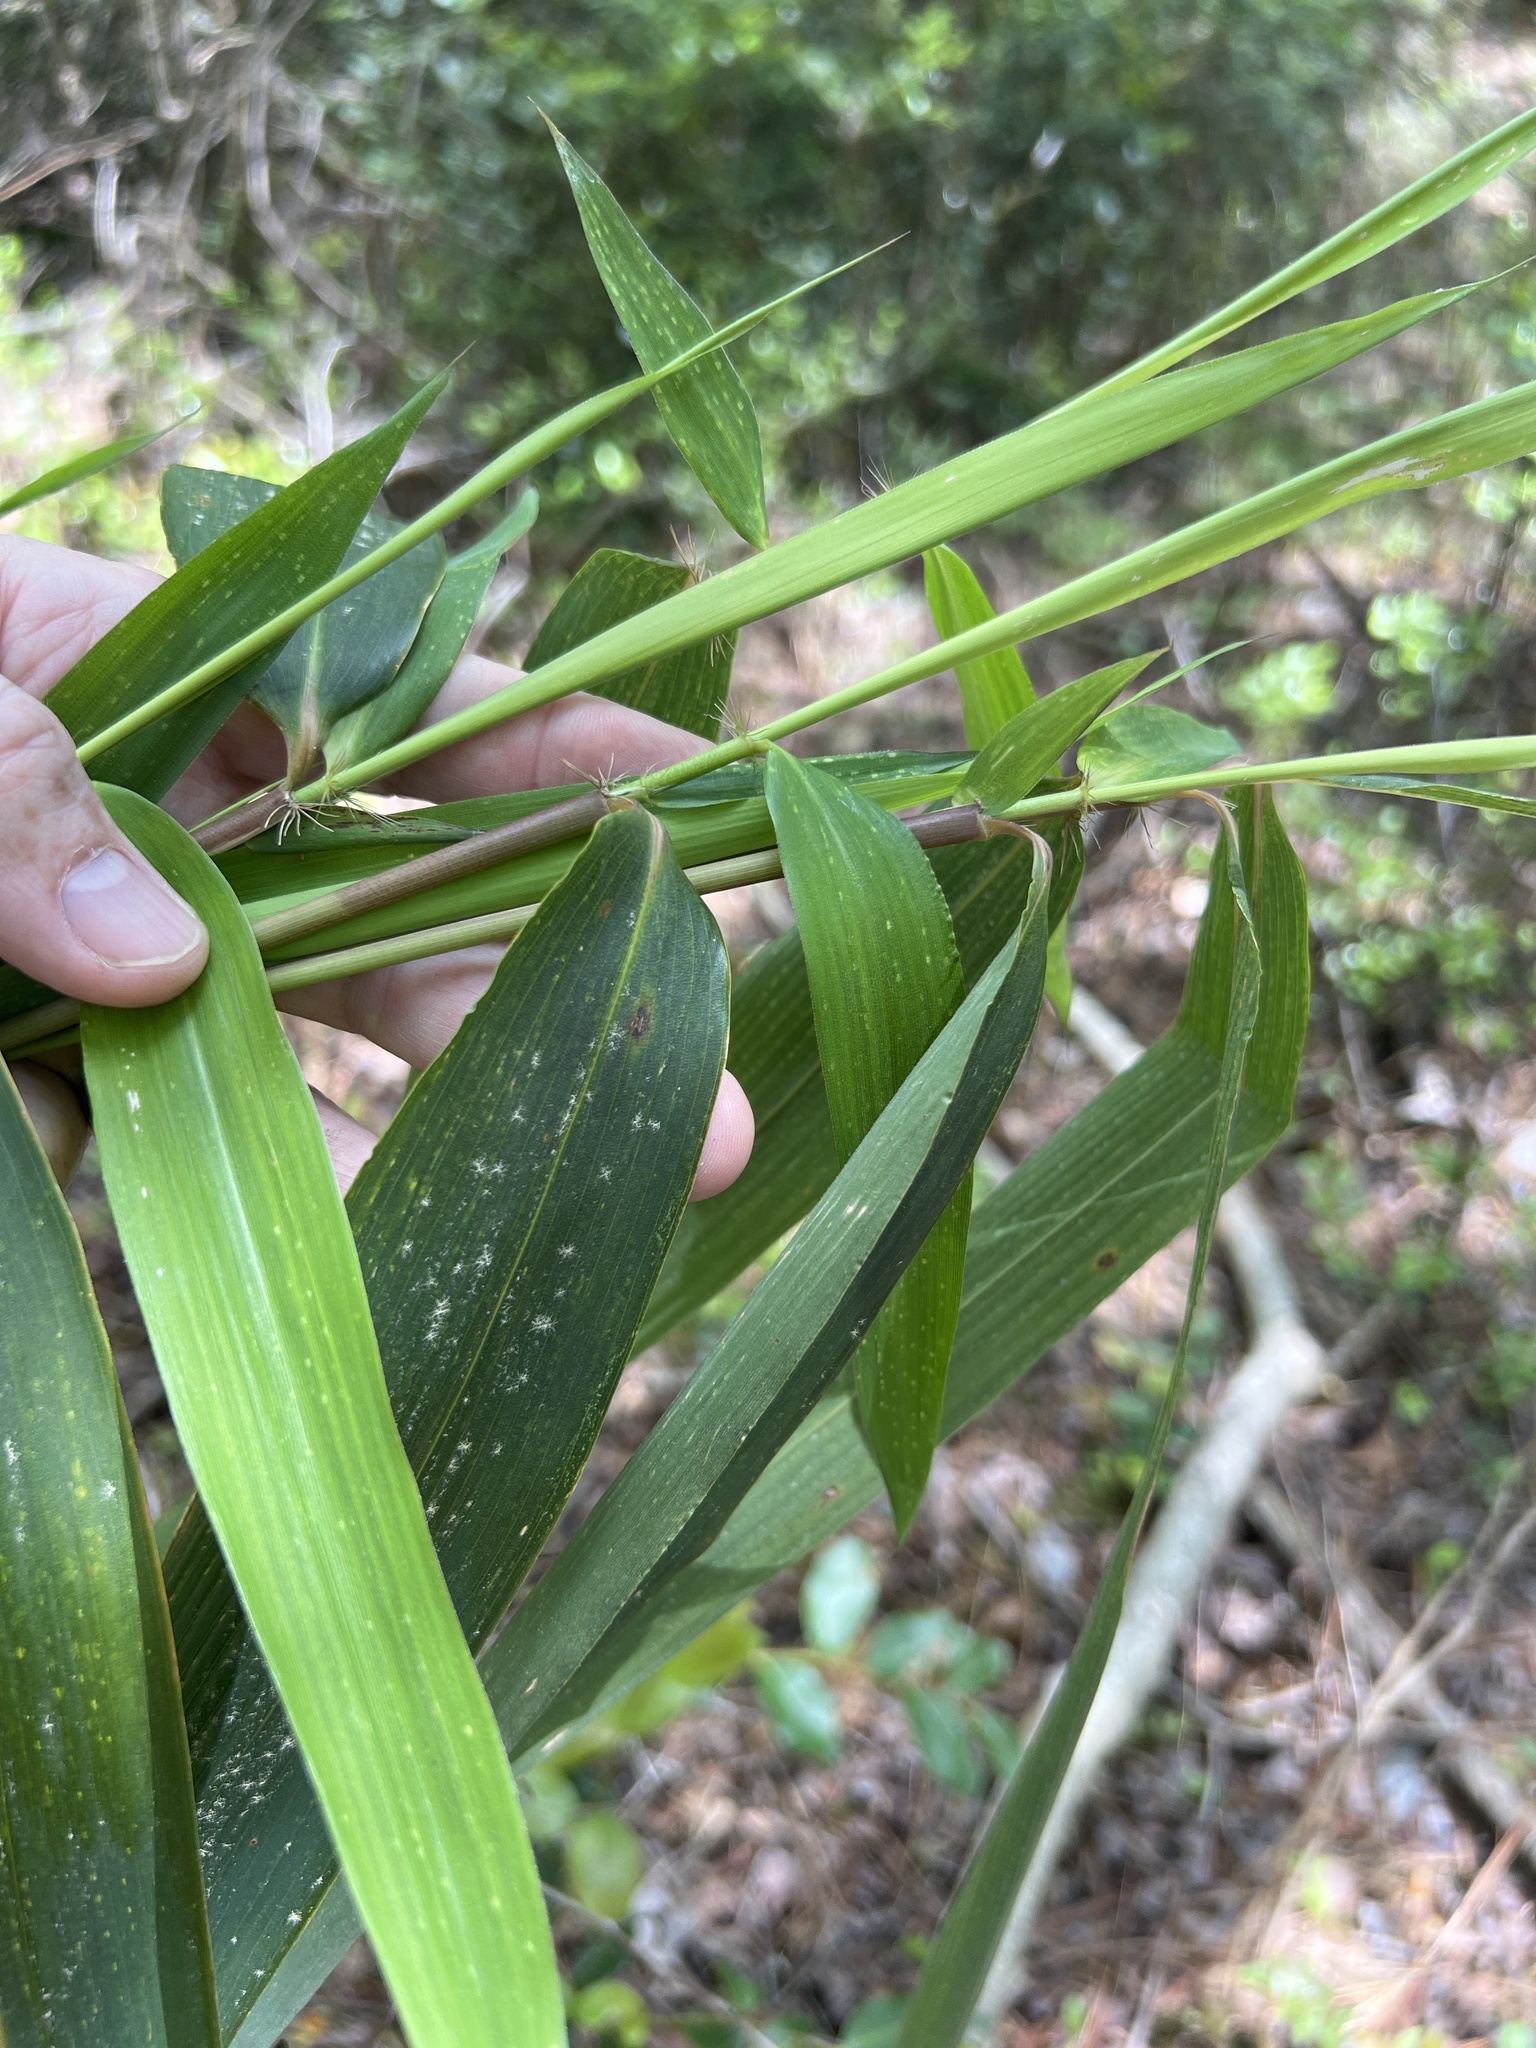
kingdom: Plantae
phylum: Tracheophyta
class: Liliopsida
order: Poales
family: Poaceae
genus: Arundinaria
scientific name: Arundinaria tecta
